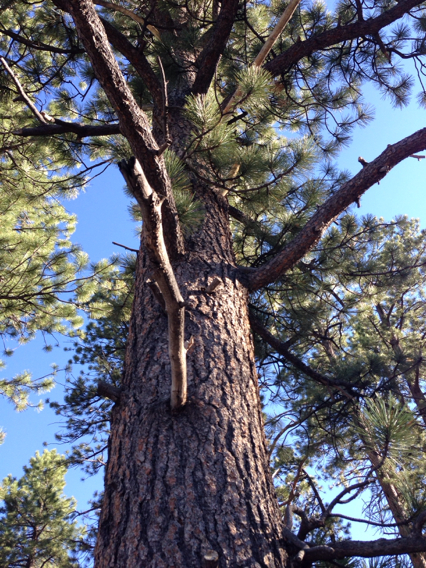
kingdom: Plantae
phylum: Tracheophyta
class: Pinopsida
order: Pinales
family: Pinaceae
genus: Pinus
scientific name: Pinus ponderosa
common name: Western yellow-pine
